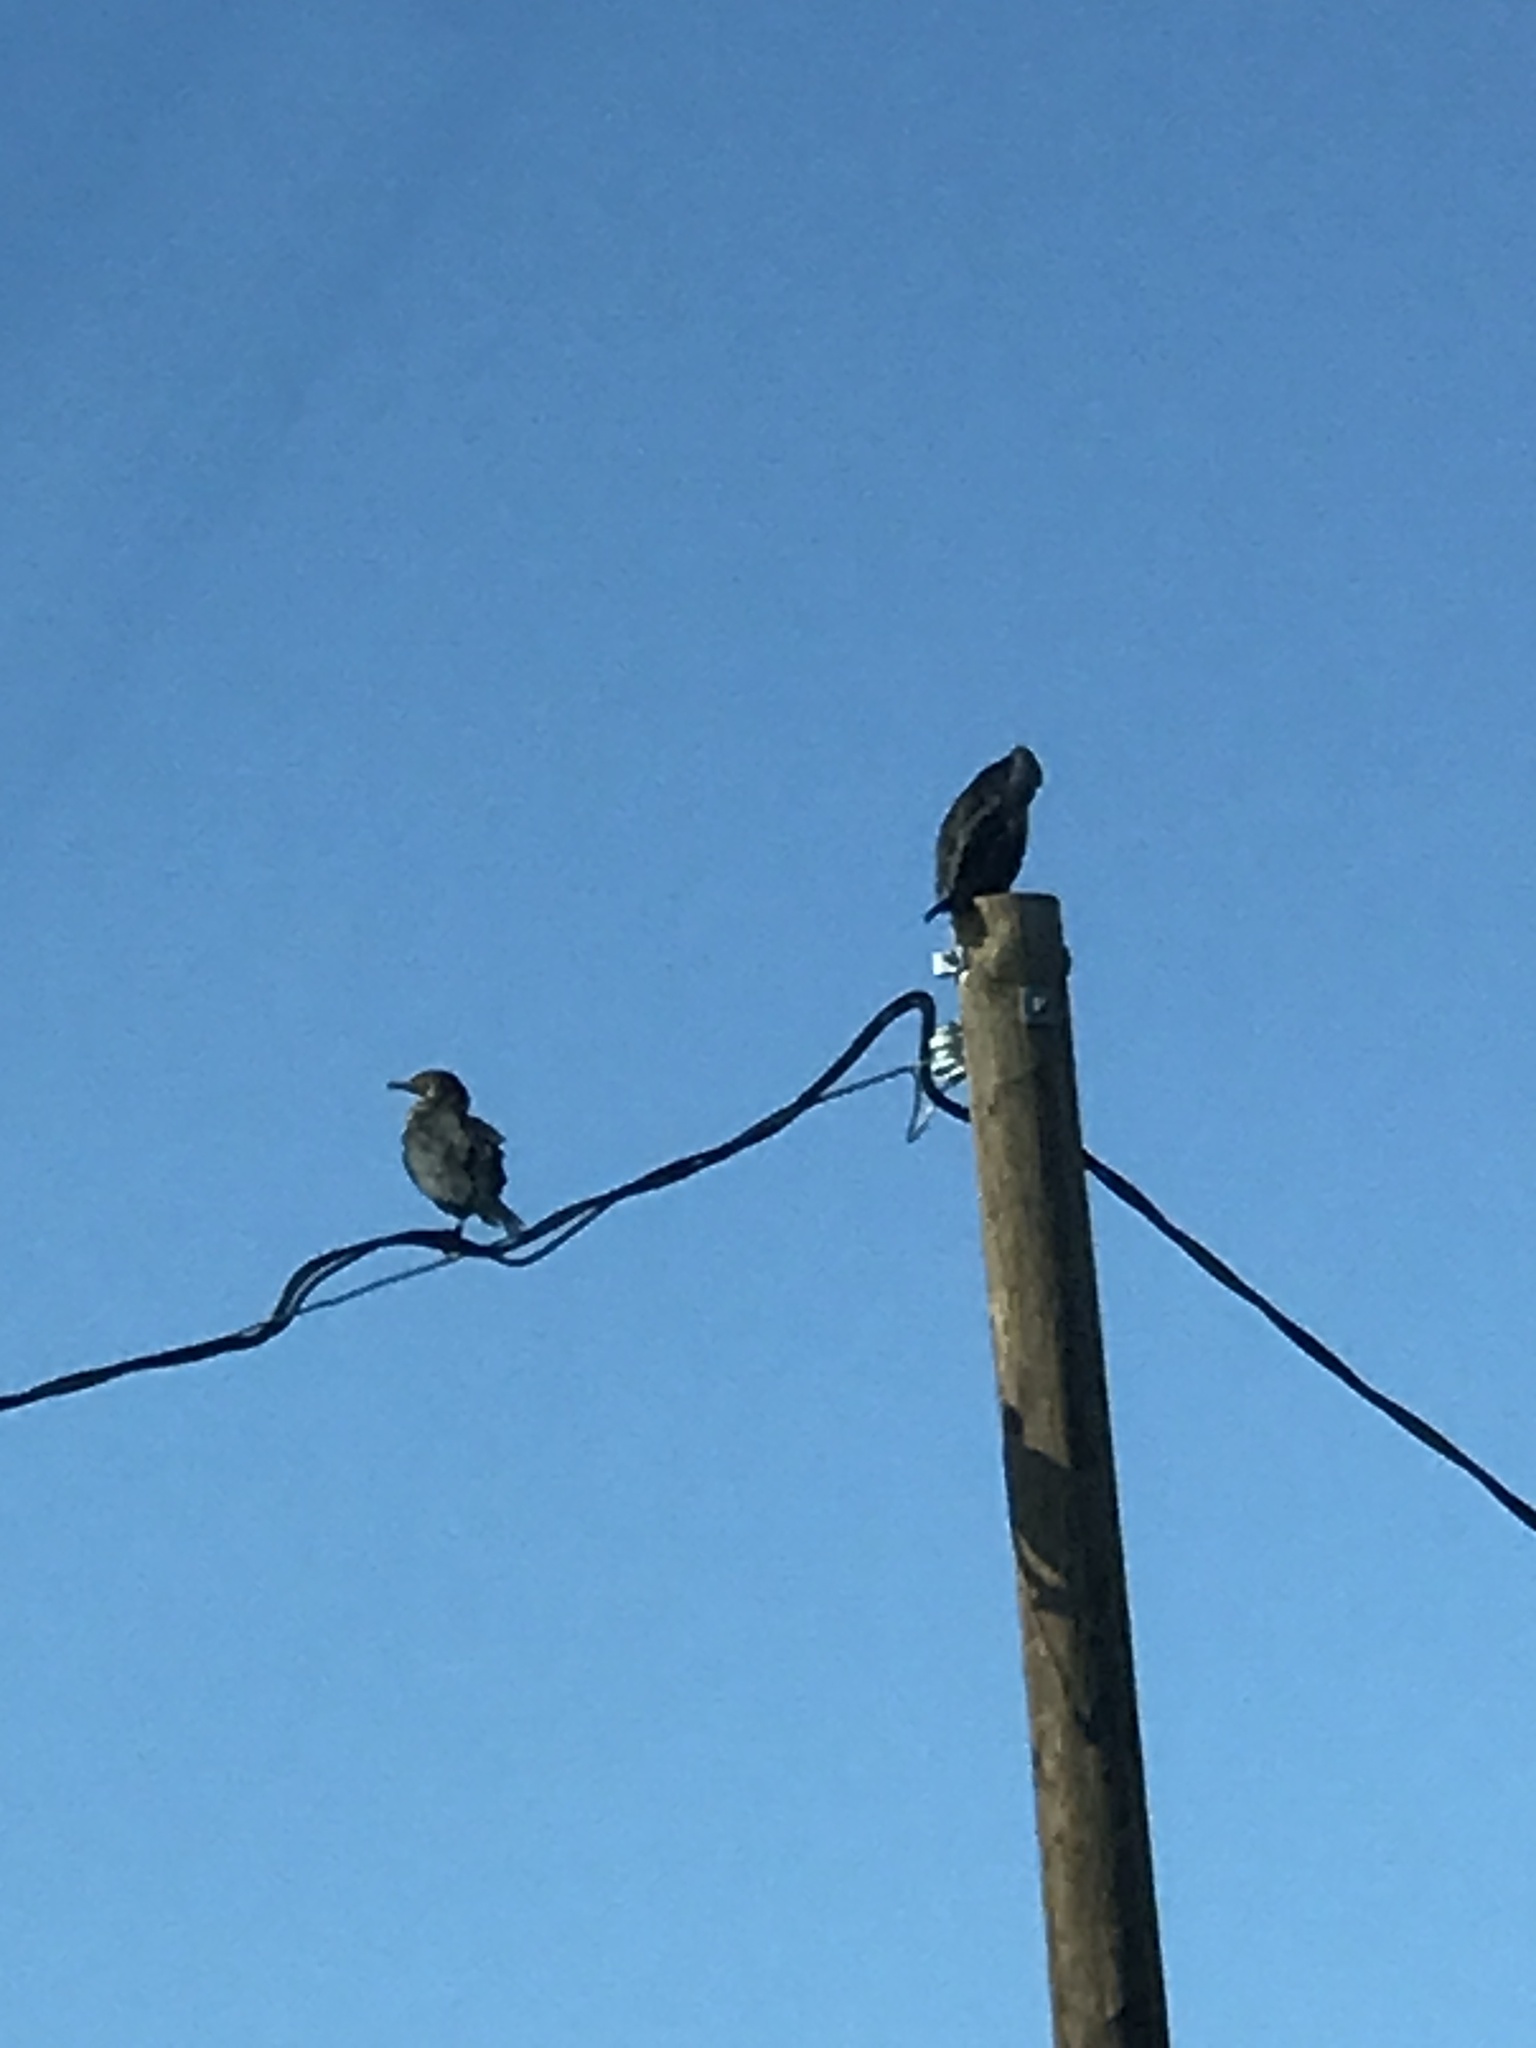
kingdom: Animalia
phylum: Chordata
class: Aves
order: Suliformes
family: Phalacrocoracidae
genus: Phalacrocorax
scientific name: Phalacrocorax auritus
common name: Double-crested cormorant
